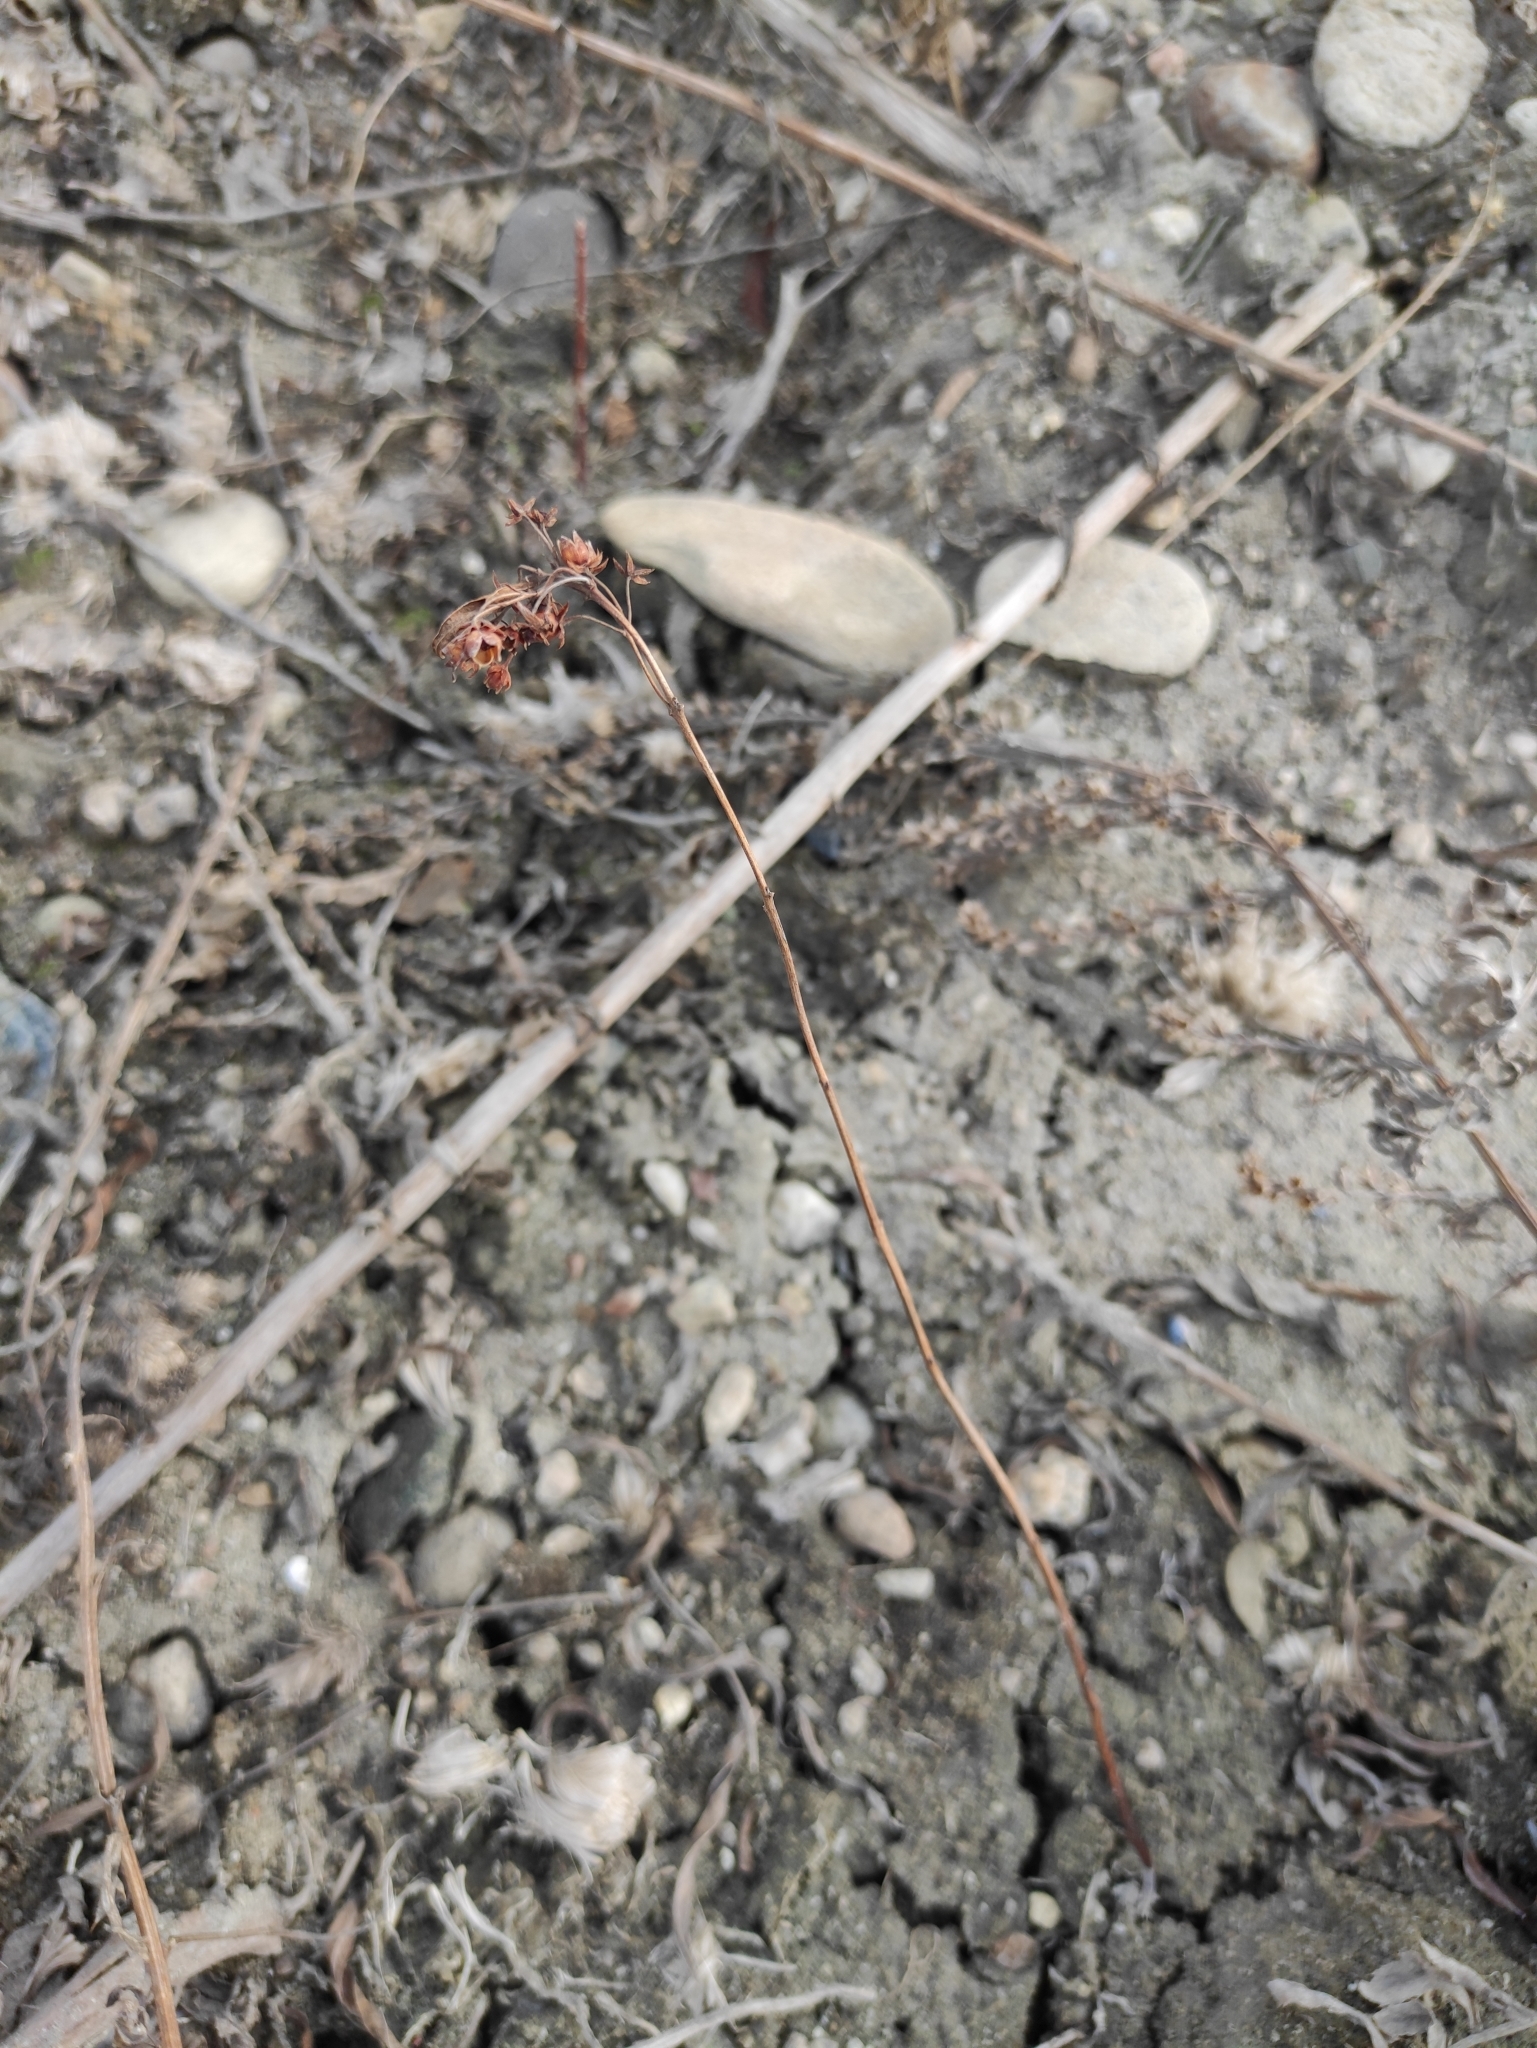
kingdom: Plantae
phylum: Tracheophyta
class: Magnoliopsida
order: Ericales
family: Primulaceae
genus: Lysimachia
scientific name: Lysimachia davurica
